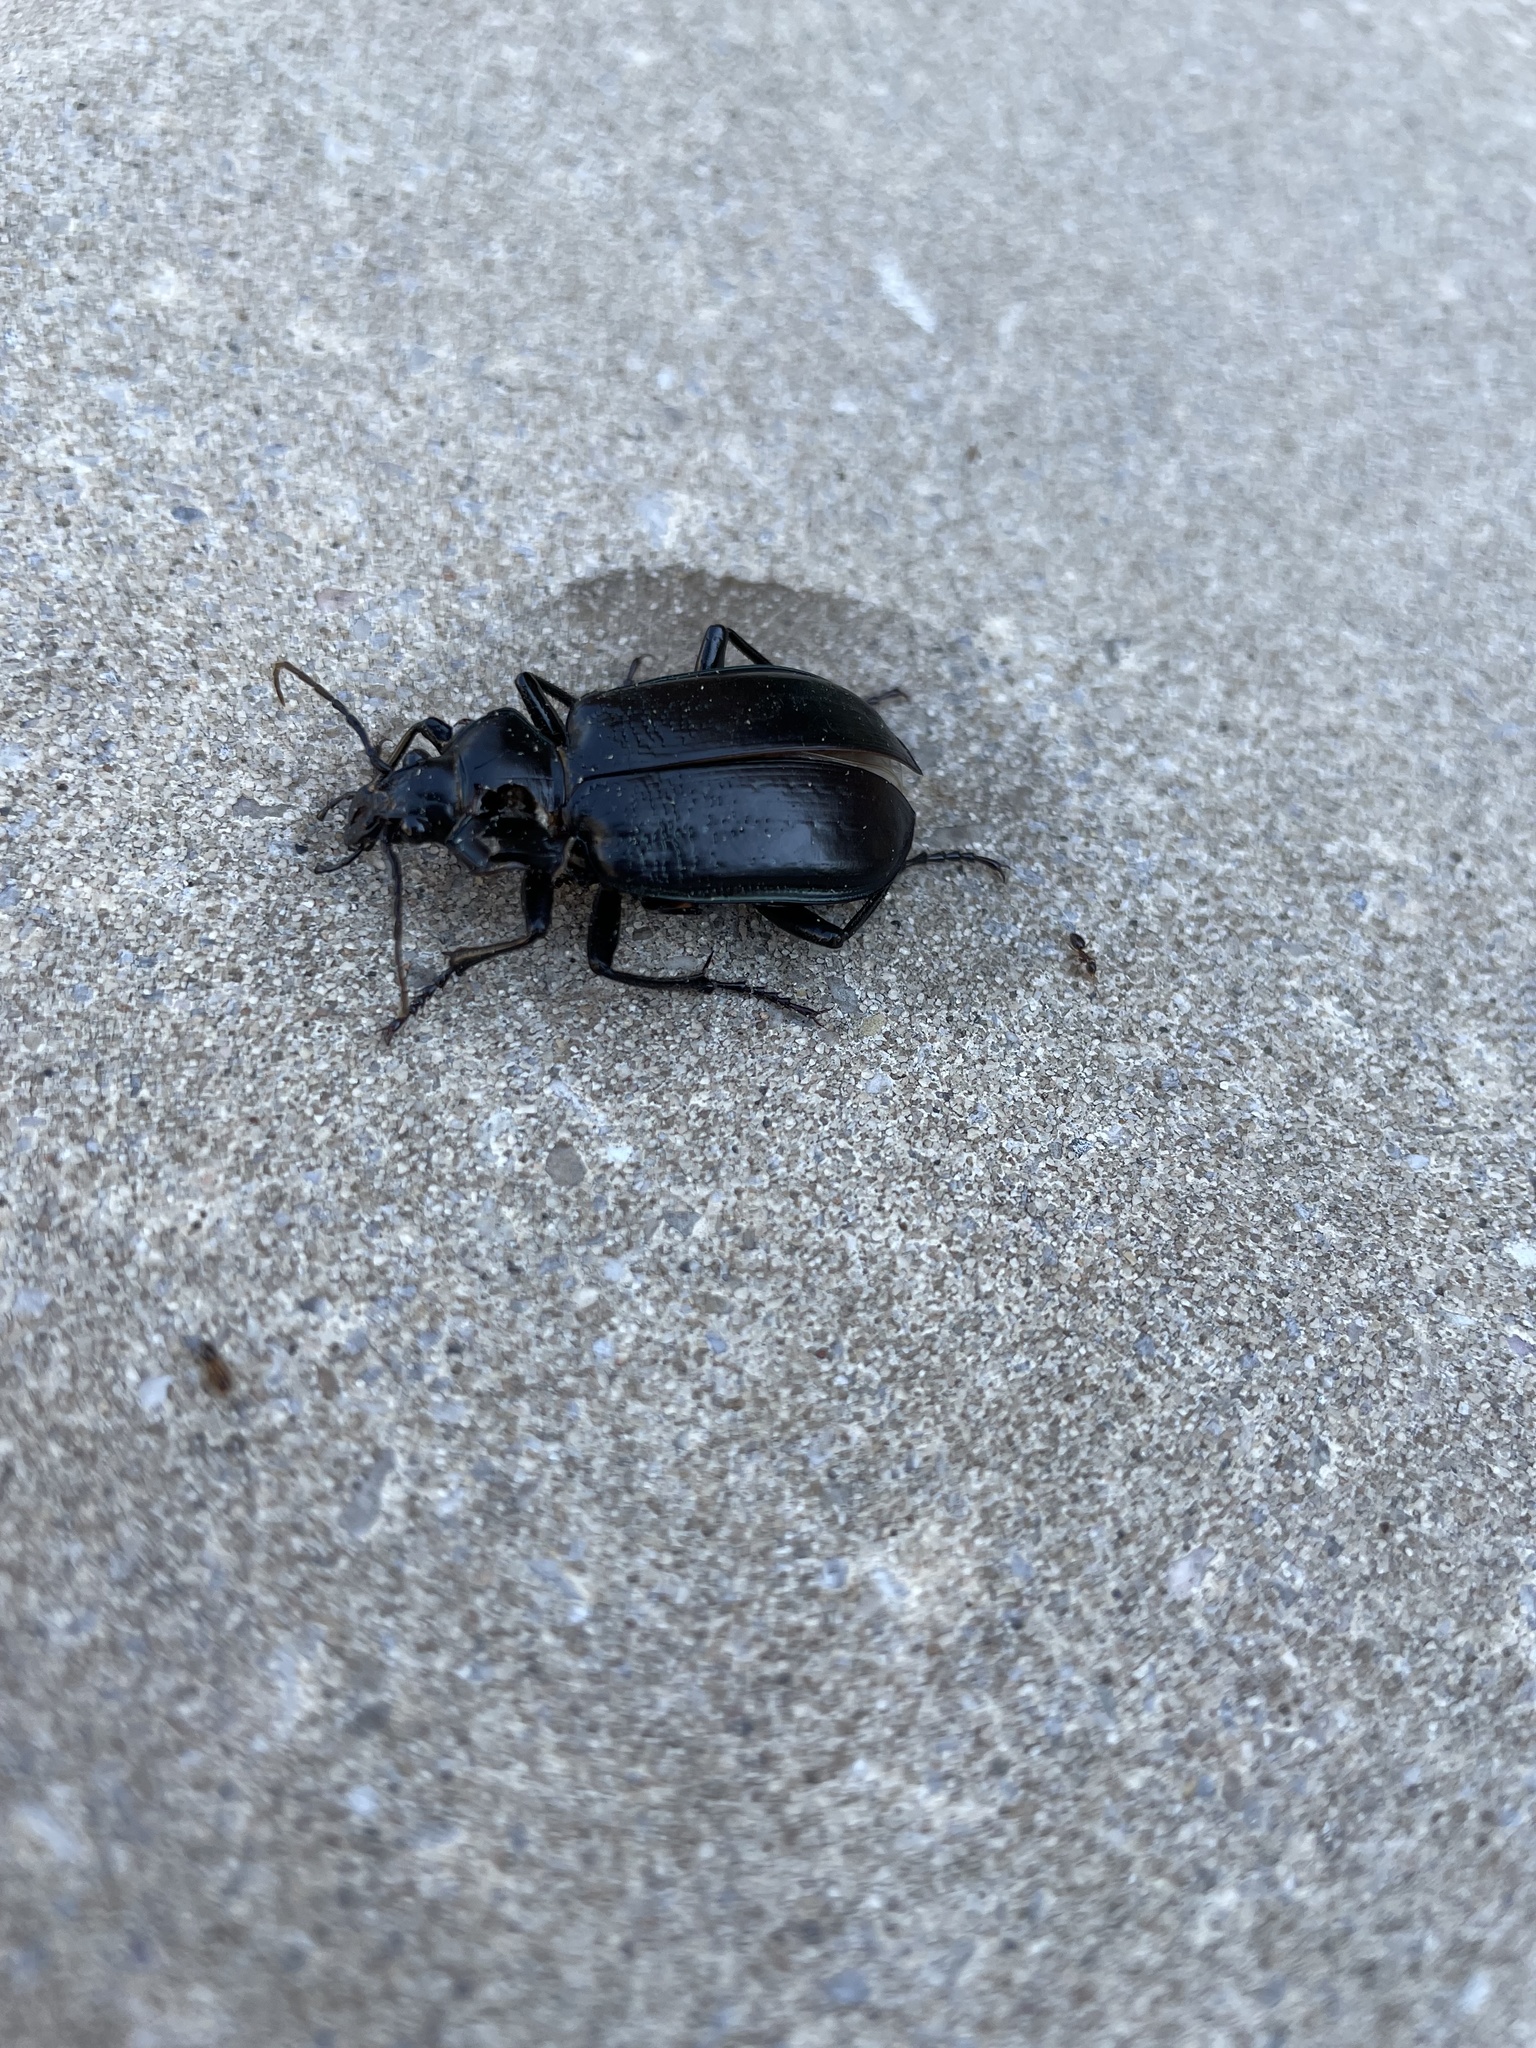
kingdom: Animalia
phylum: Arthropoda
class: Insecta
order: Coleoptera
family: Carabidae
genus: Calosoma
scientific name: Calosoma marginale
